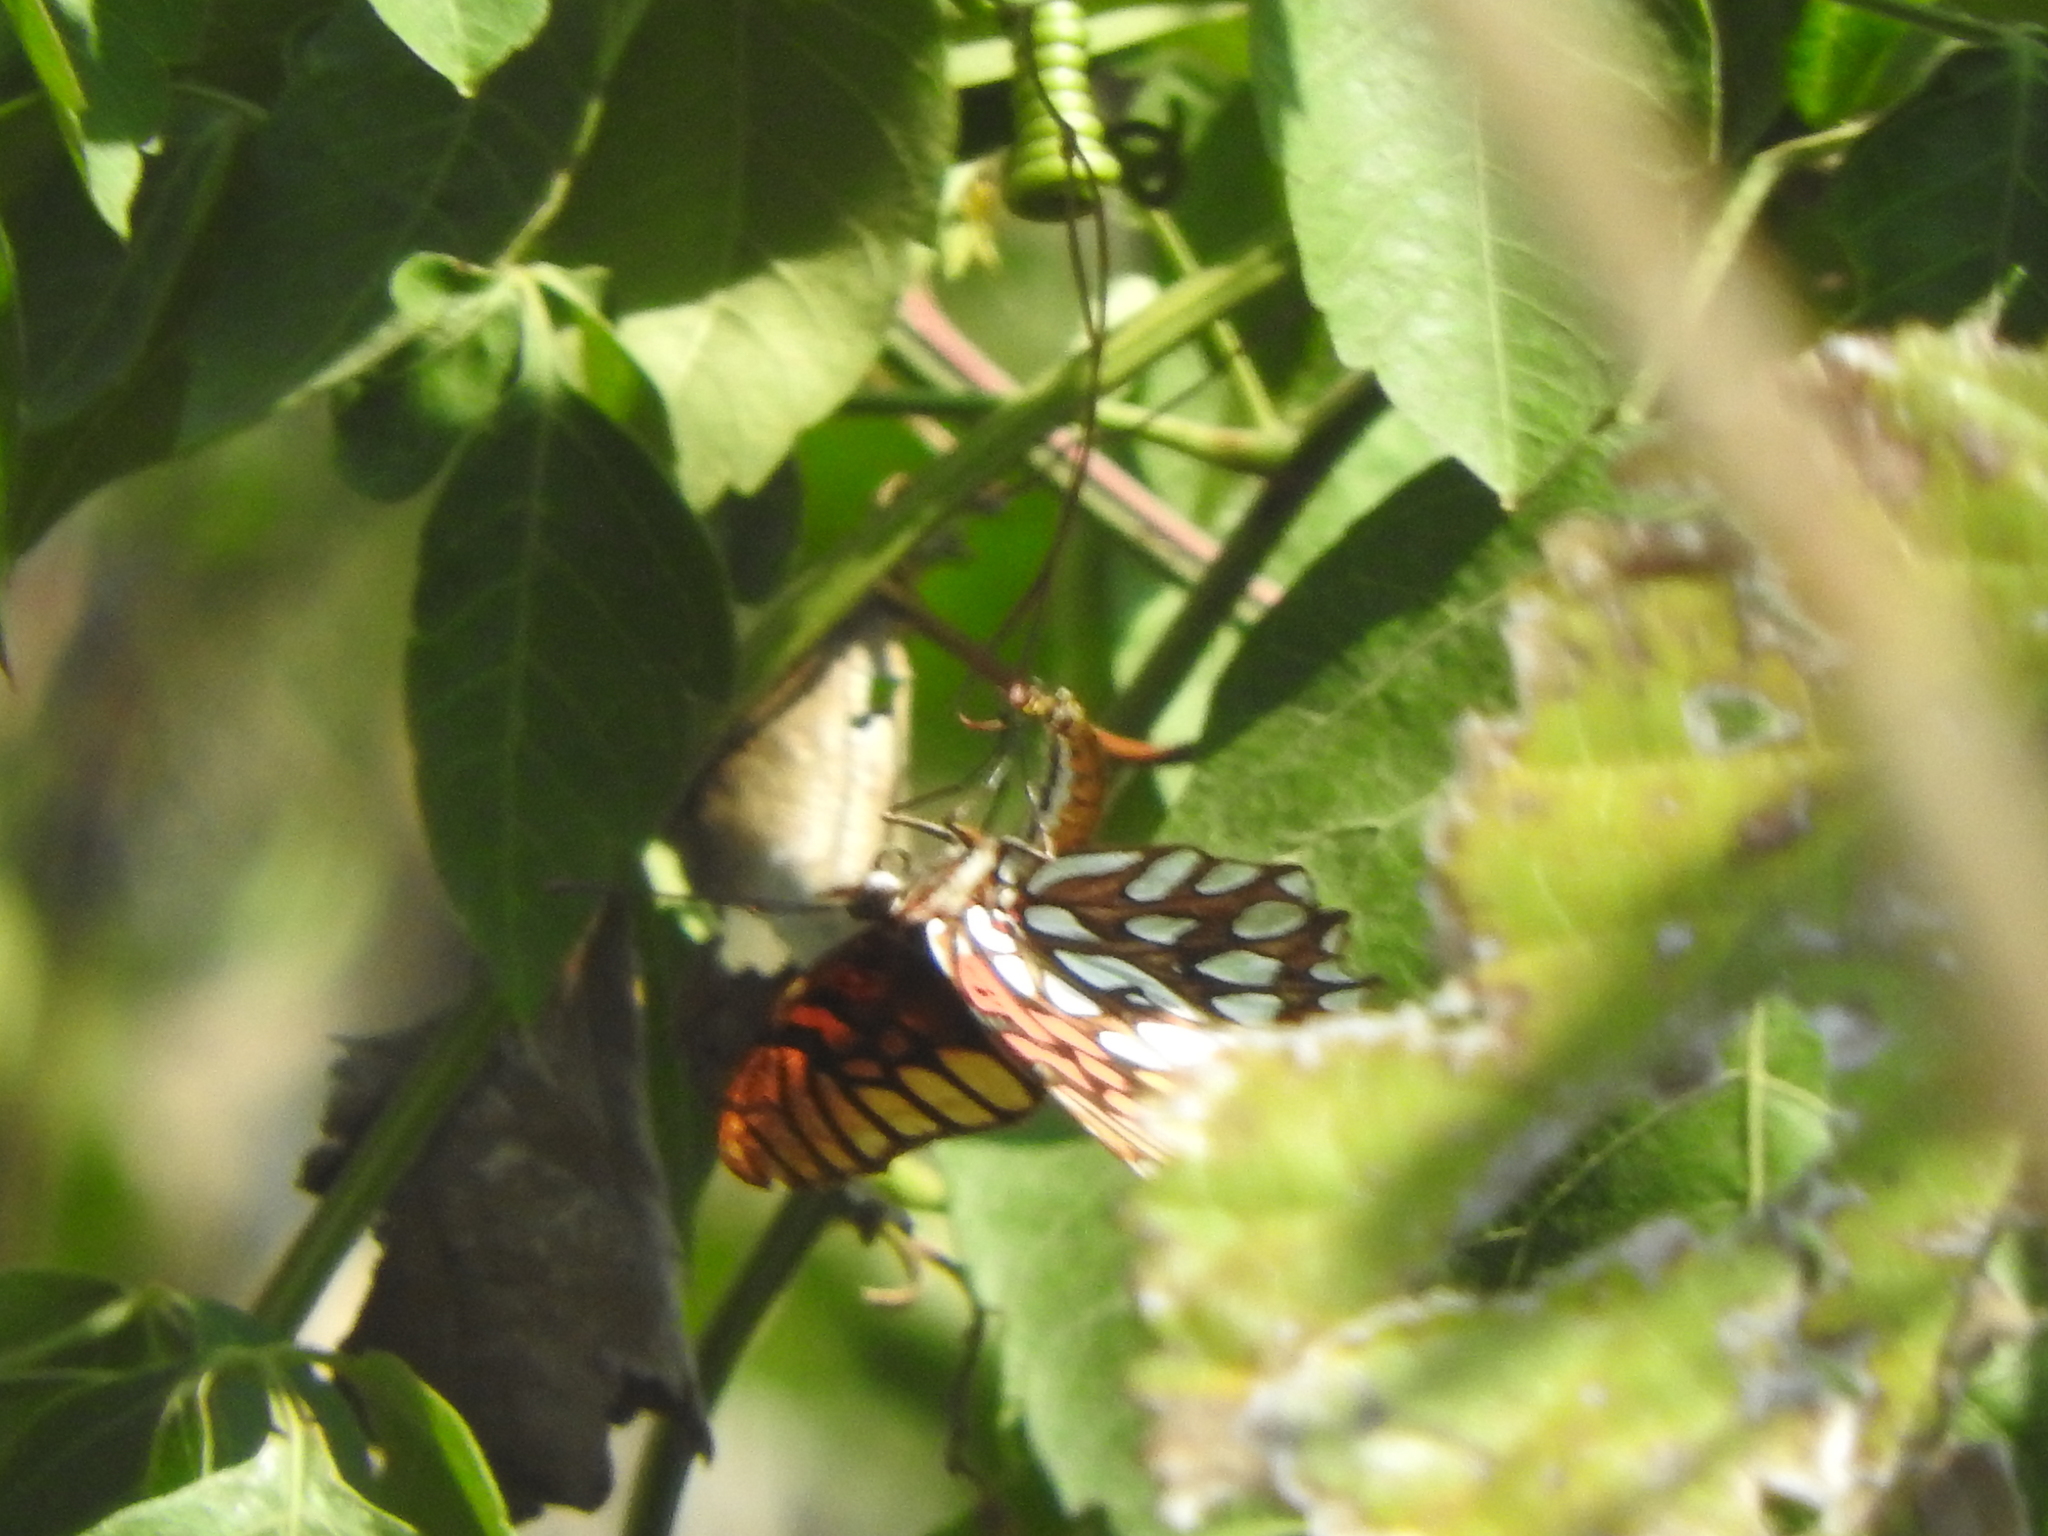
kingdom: Animalia
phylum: Arthropoda
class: Insecta
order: Lepidoptera
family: Nymphalidae
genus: Dione
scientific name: Dione moneta
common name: Mexican silverspot
